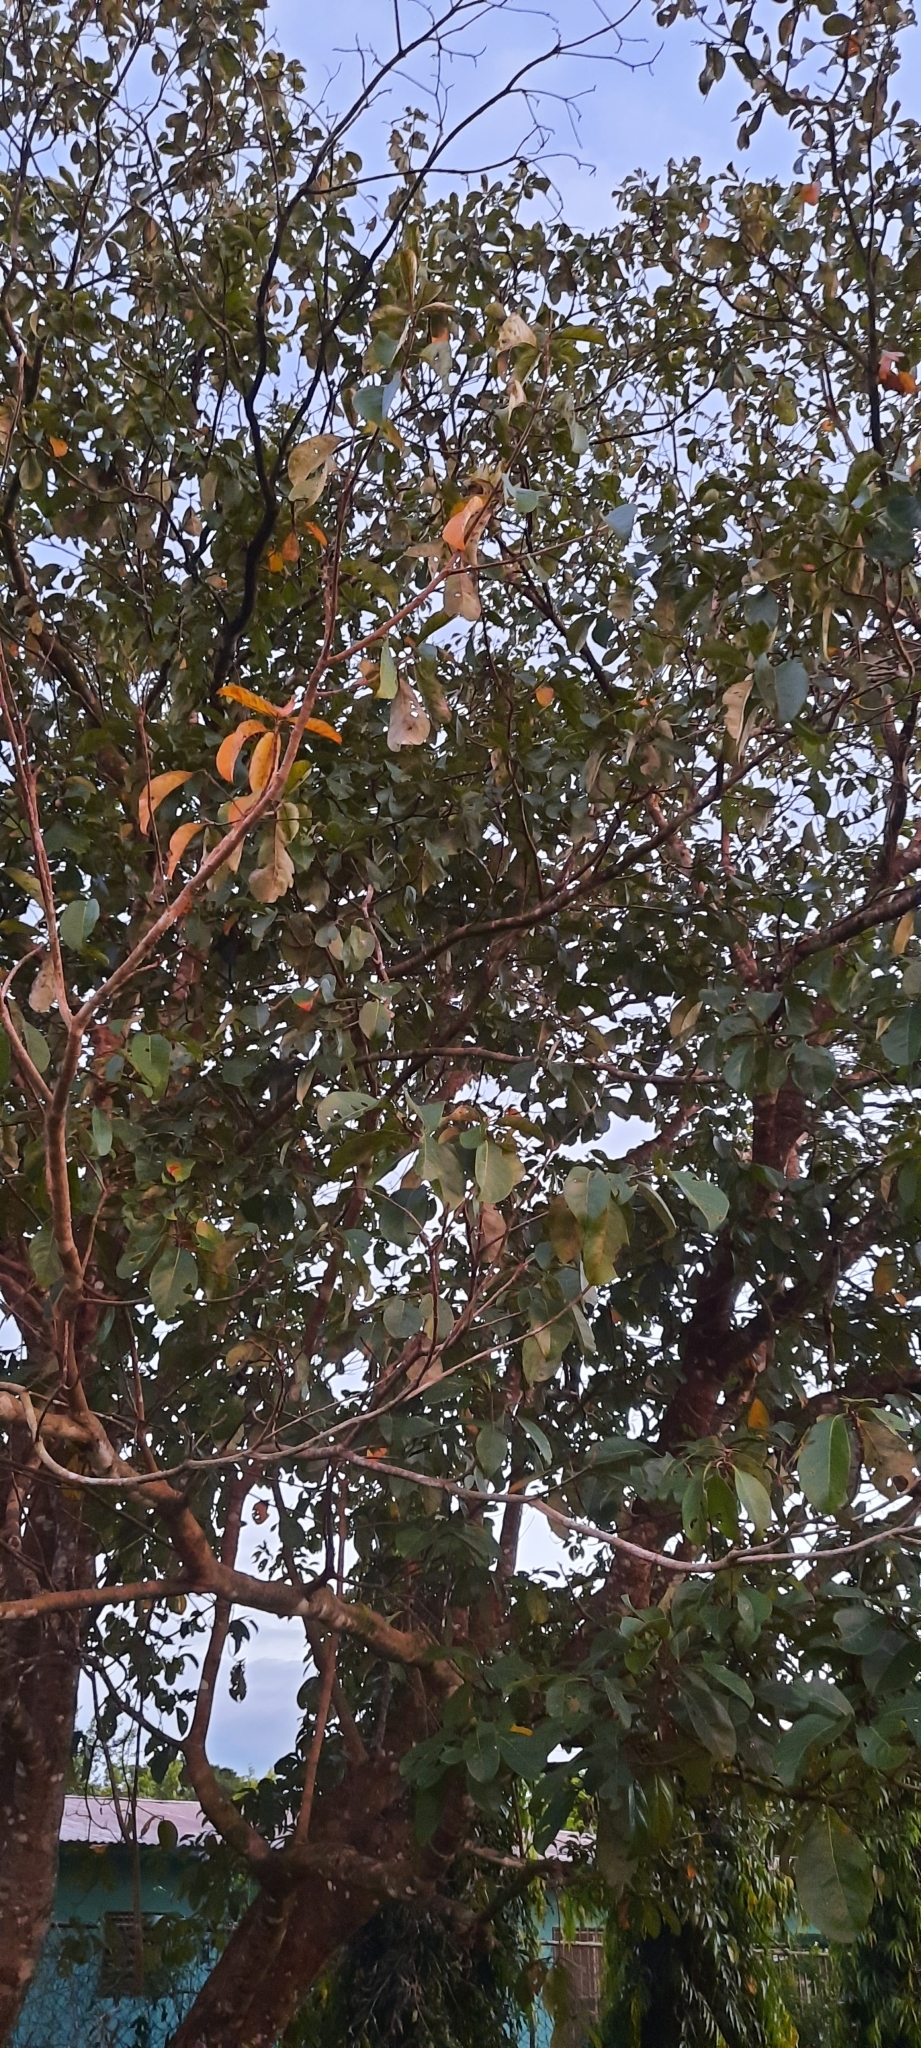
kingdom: Plantae
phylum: Tracheophyta
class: Magnoliopsida
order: Malpighiales
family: Malpighiaceae
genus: Byrsonima
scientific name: Byrsonima crassifolia
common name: Golden spoon
